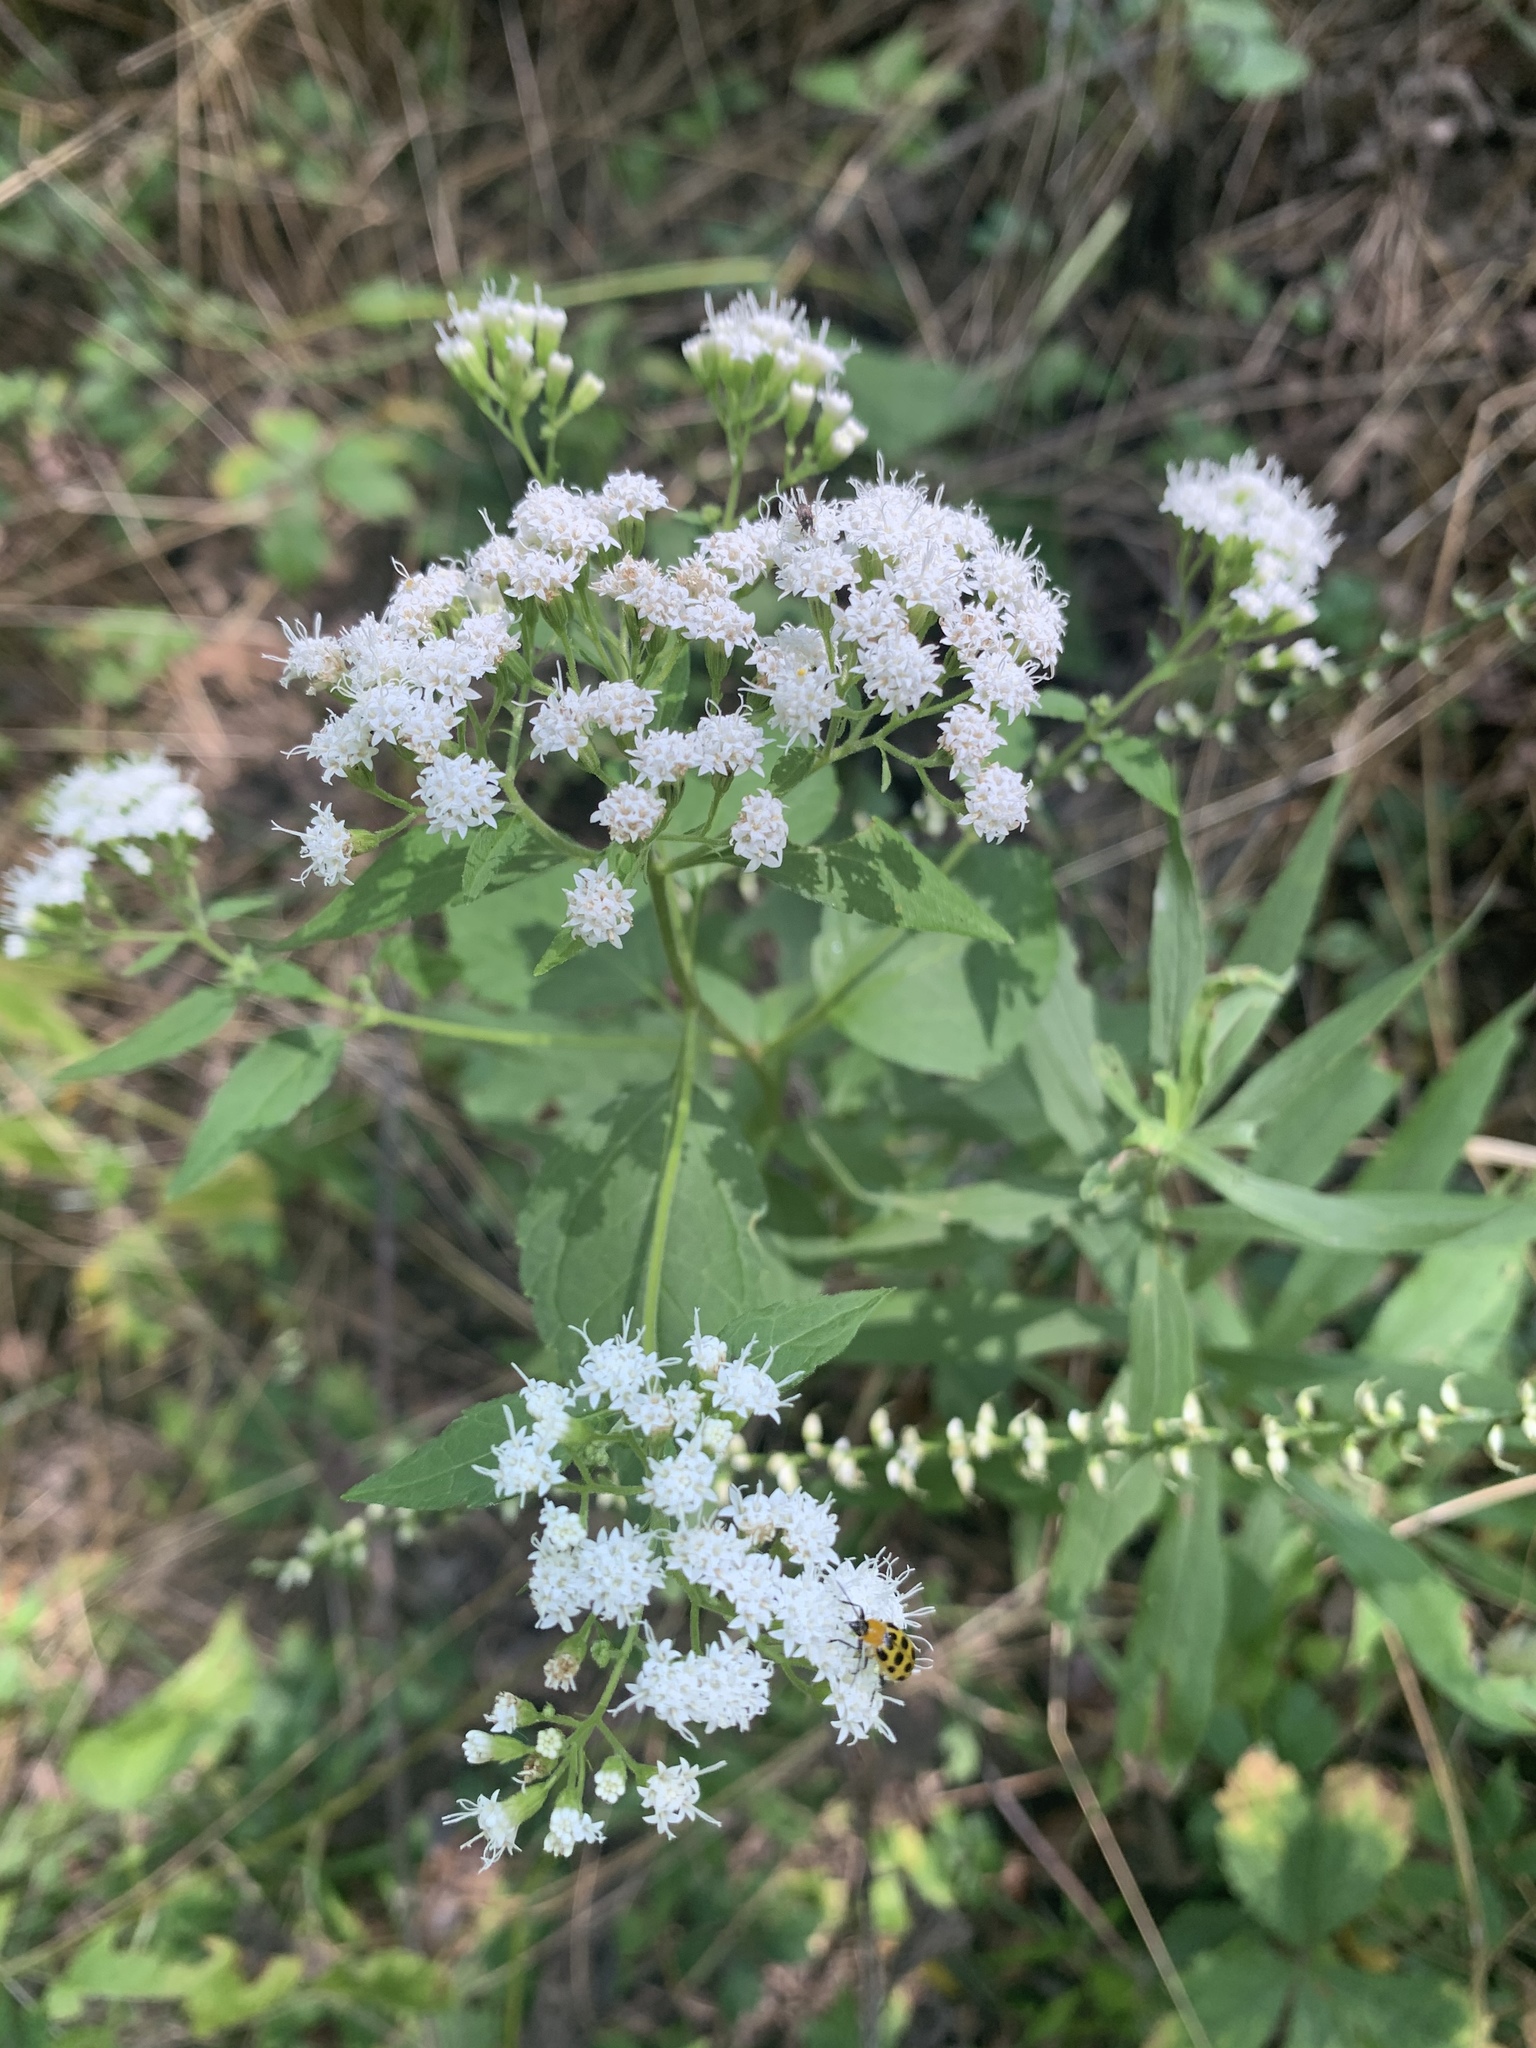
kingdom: Plantae
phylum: Tracheophyta
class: Magnoliopsida
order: Asterales
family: Asteraceae
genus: Ageratina
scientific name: Ageratina altissima
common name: White snakeroot
